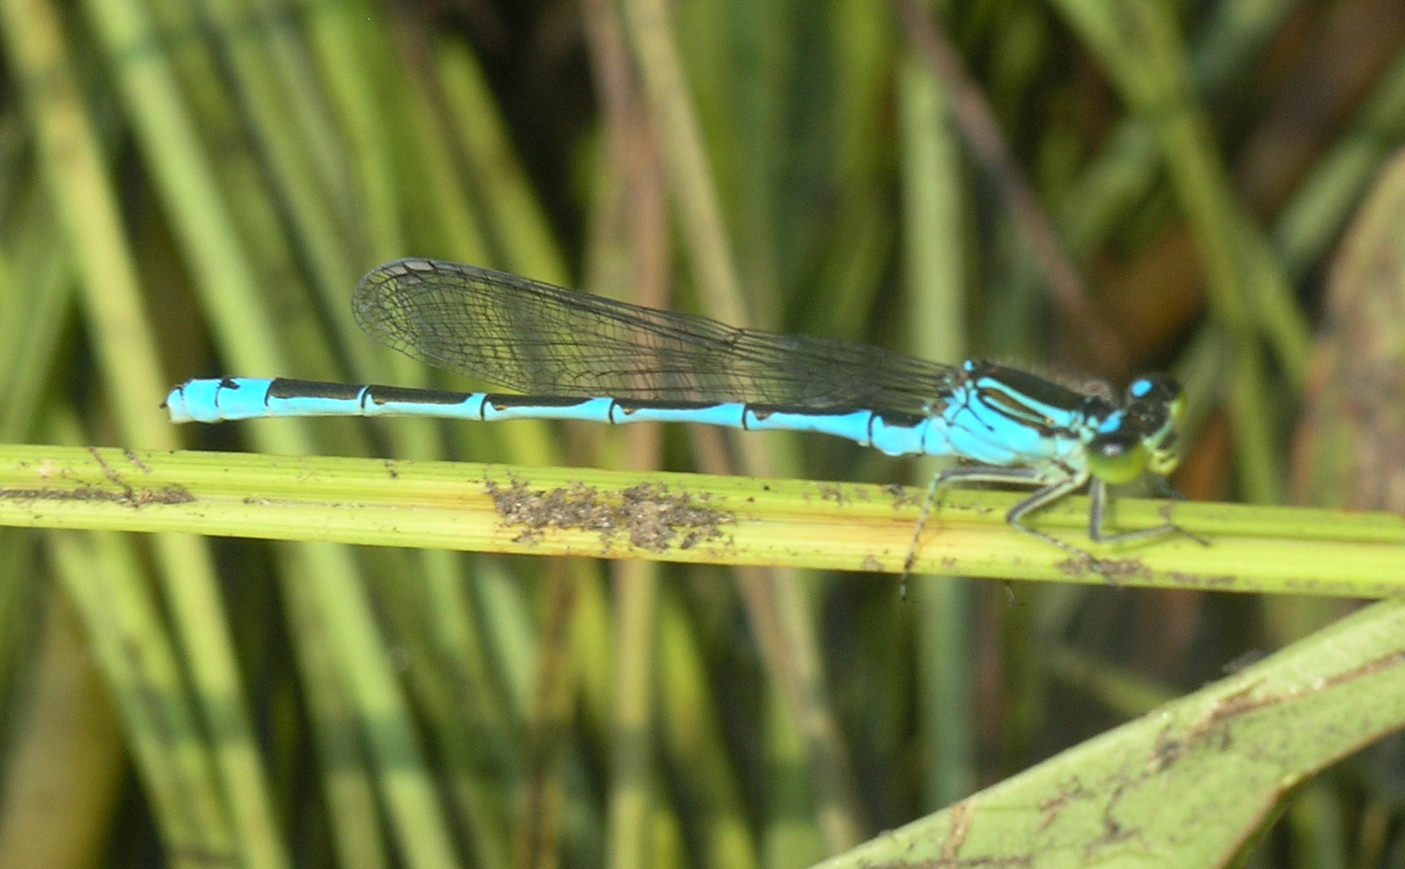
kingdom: Animalia
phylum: Arthropoda
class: Insecta
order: Odonata
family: Coenagrionidae
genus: Paracercion
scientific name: Paracercion v-nigrum
